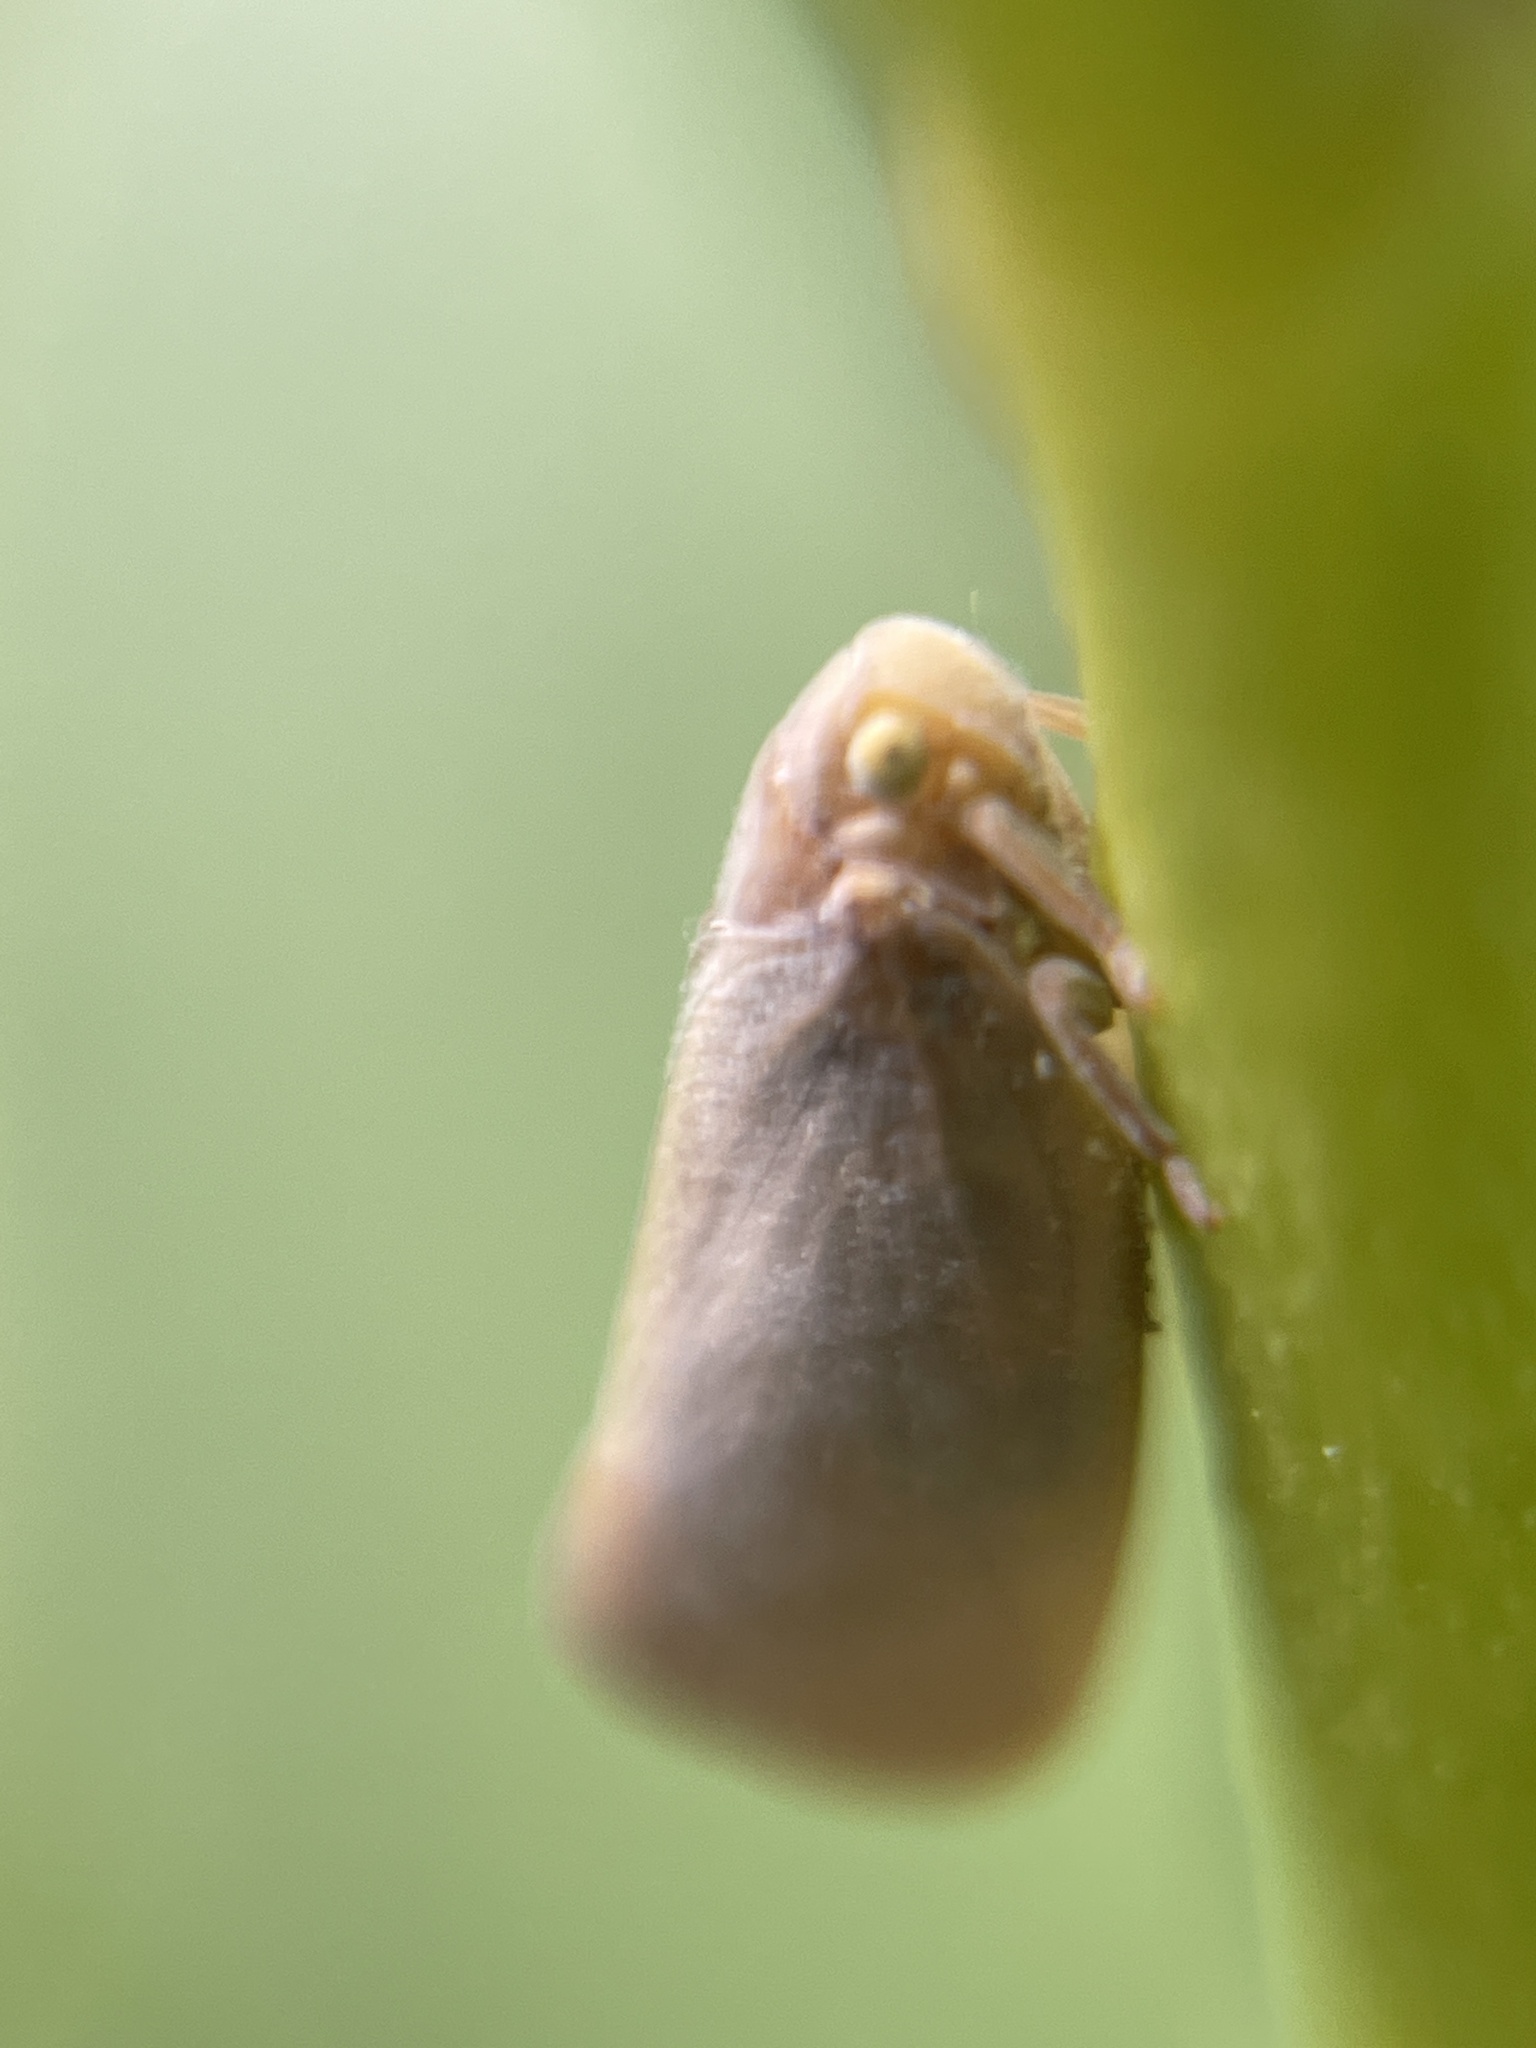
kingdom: Animalia
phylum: Arthropoda
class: Insecta
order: Hemiptera
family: Flatidae
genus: Anzora
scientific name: Anzora unicolor
